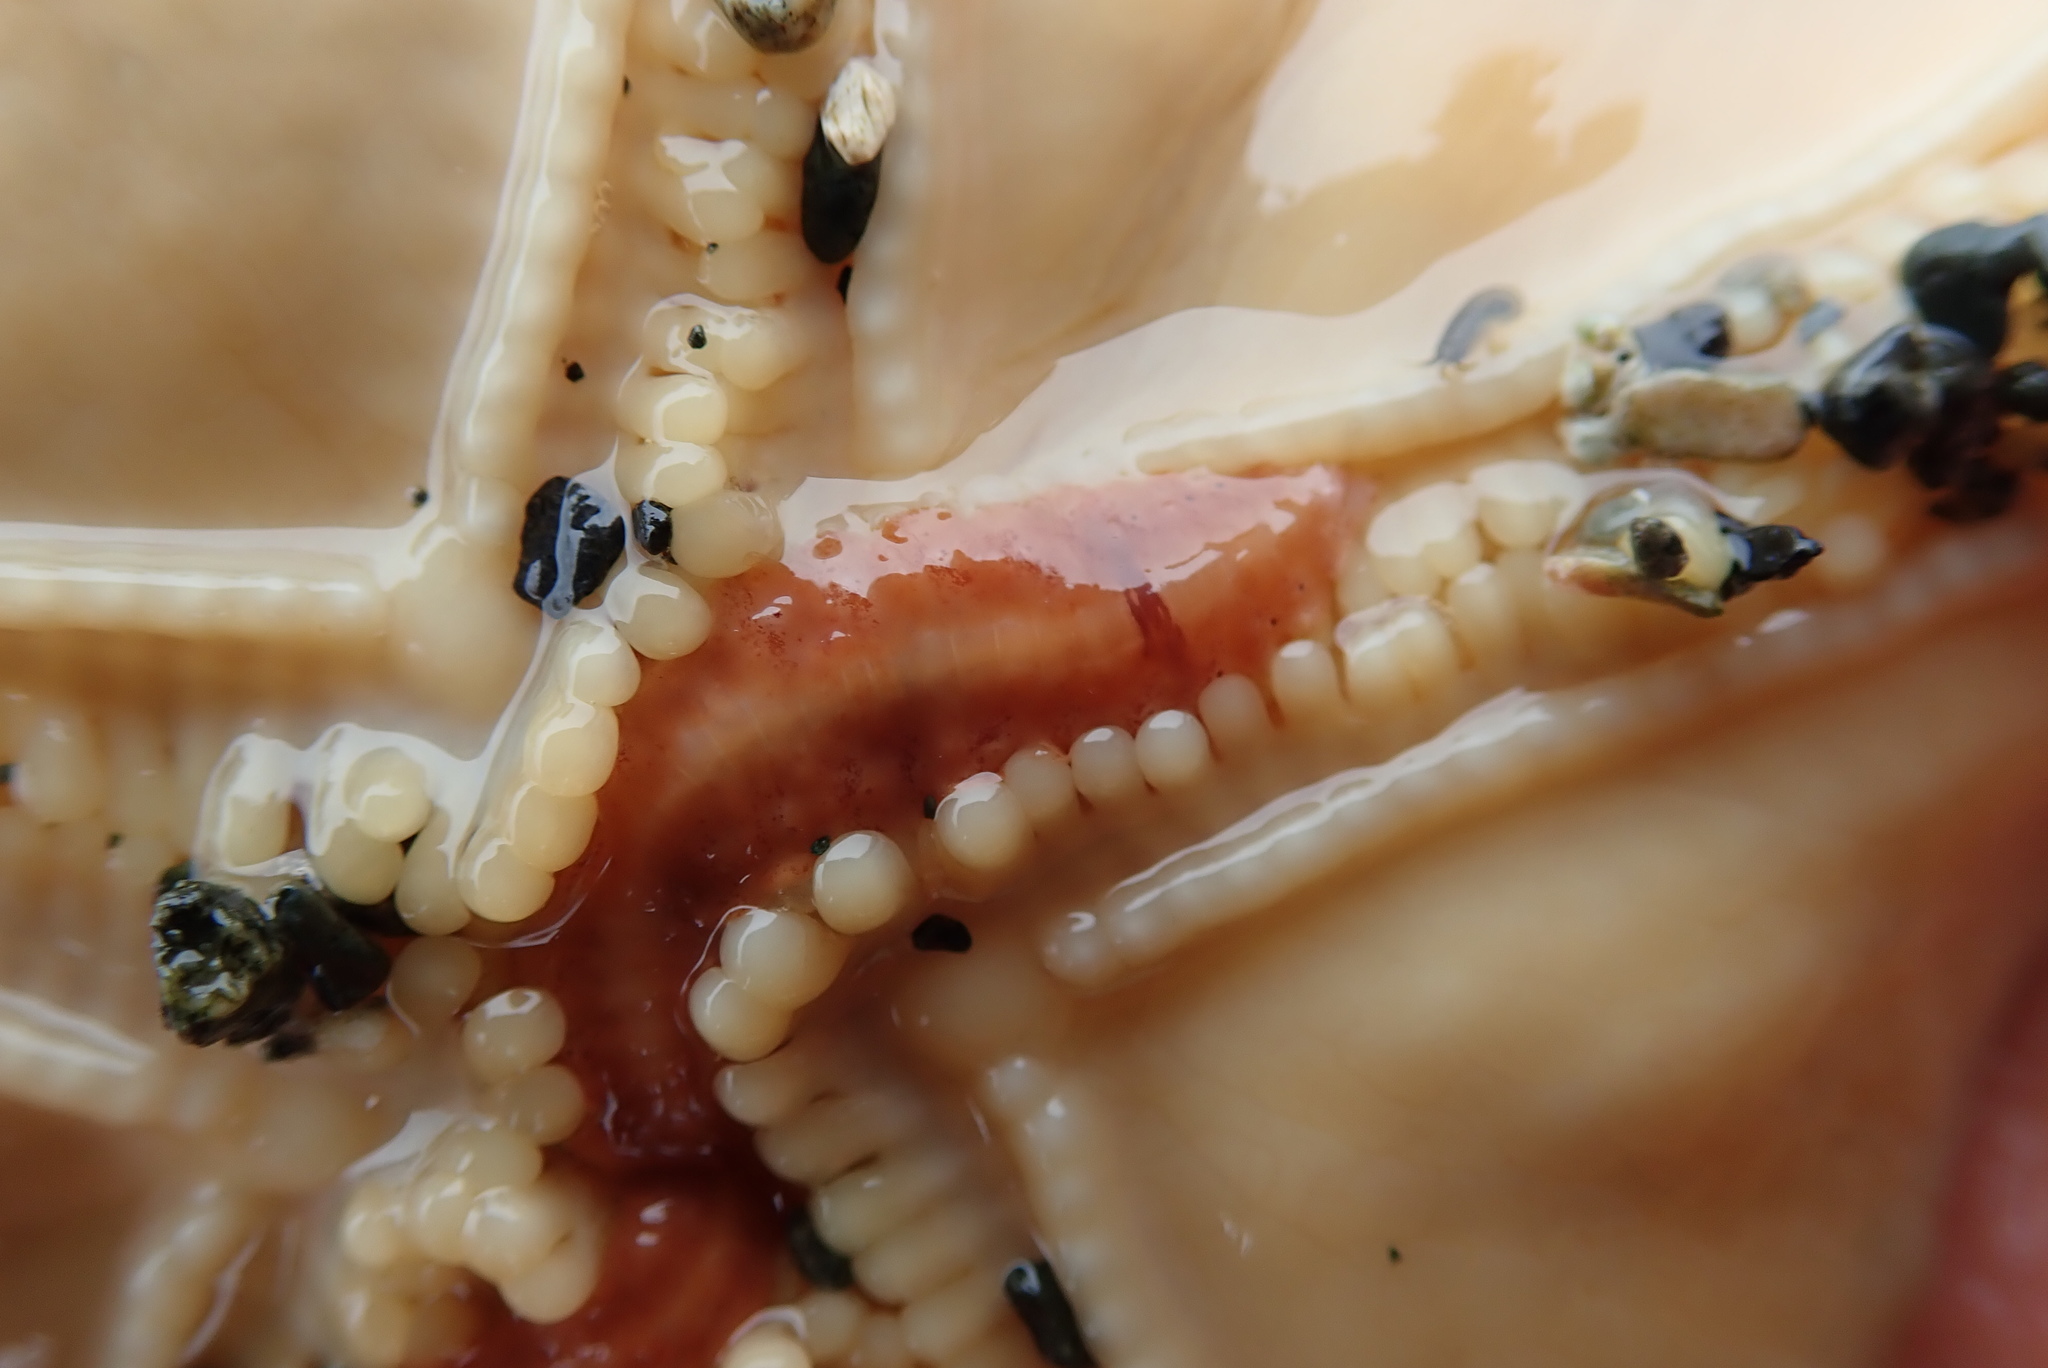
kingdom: Animalia
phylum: Annelida
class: Polychaeta
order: Phyllodocida
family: Polynoidae
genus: Arctonoe
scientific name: Arctonoe pulchra
